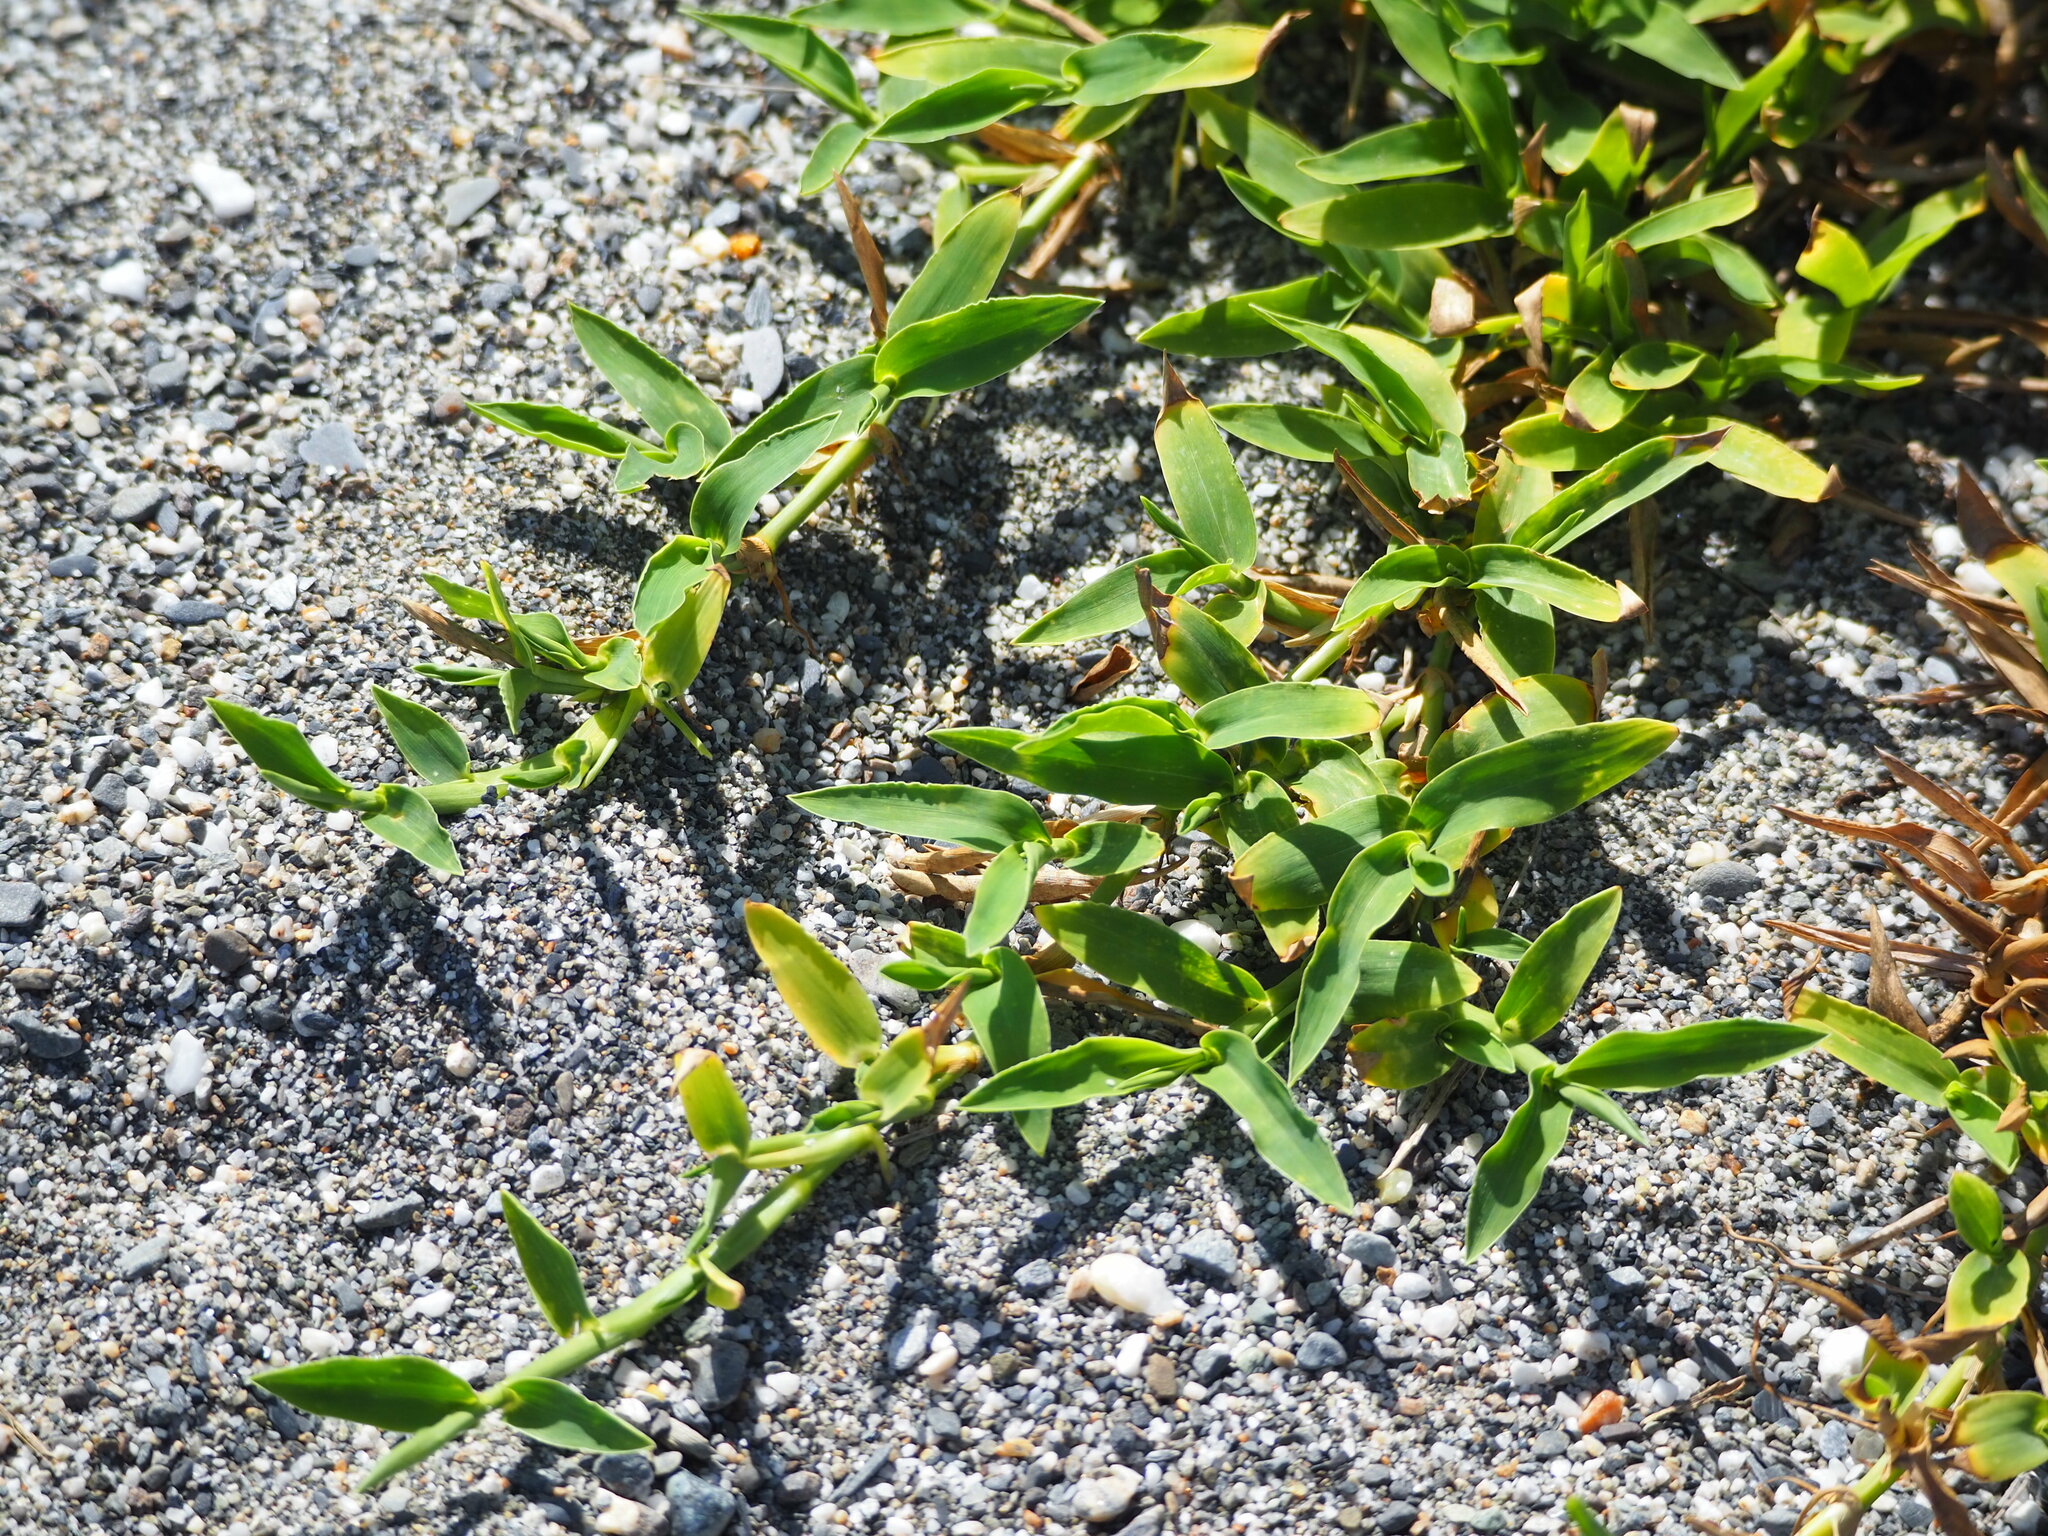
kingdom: Plantae
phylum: Tracheophyta
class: Liliopsida
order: Poales
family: Poaceae
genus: Thuarea
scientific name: Thuarea involuta
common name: Tropical beach grass
